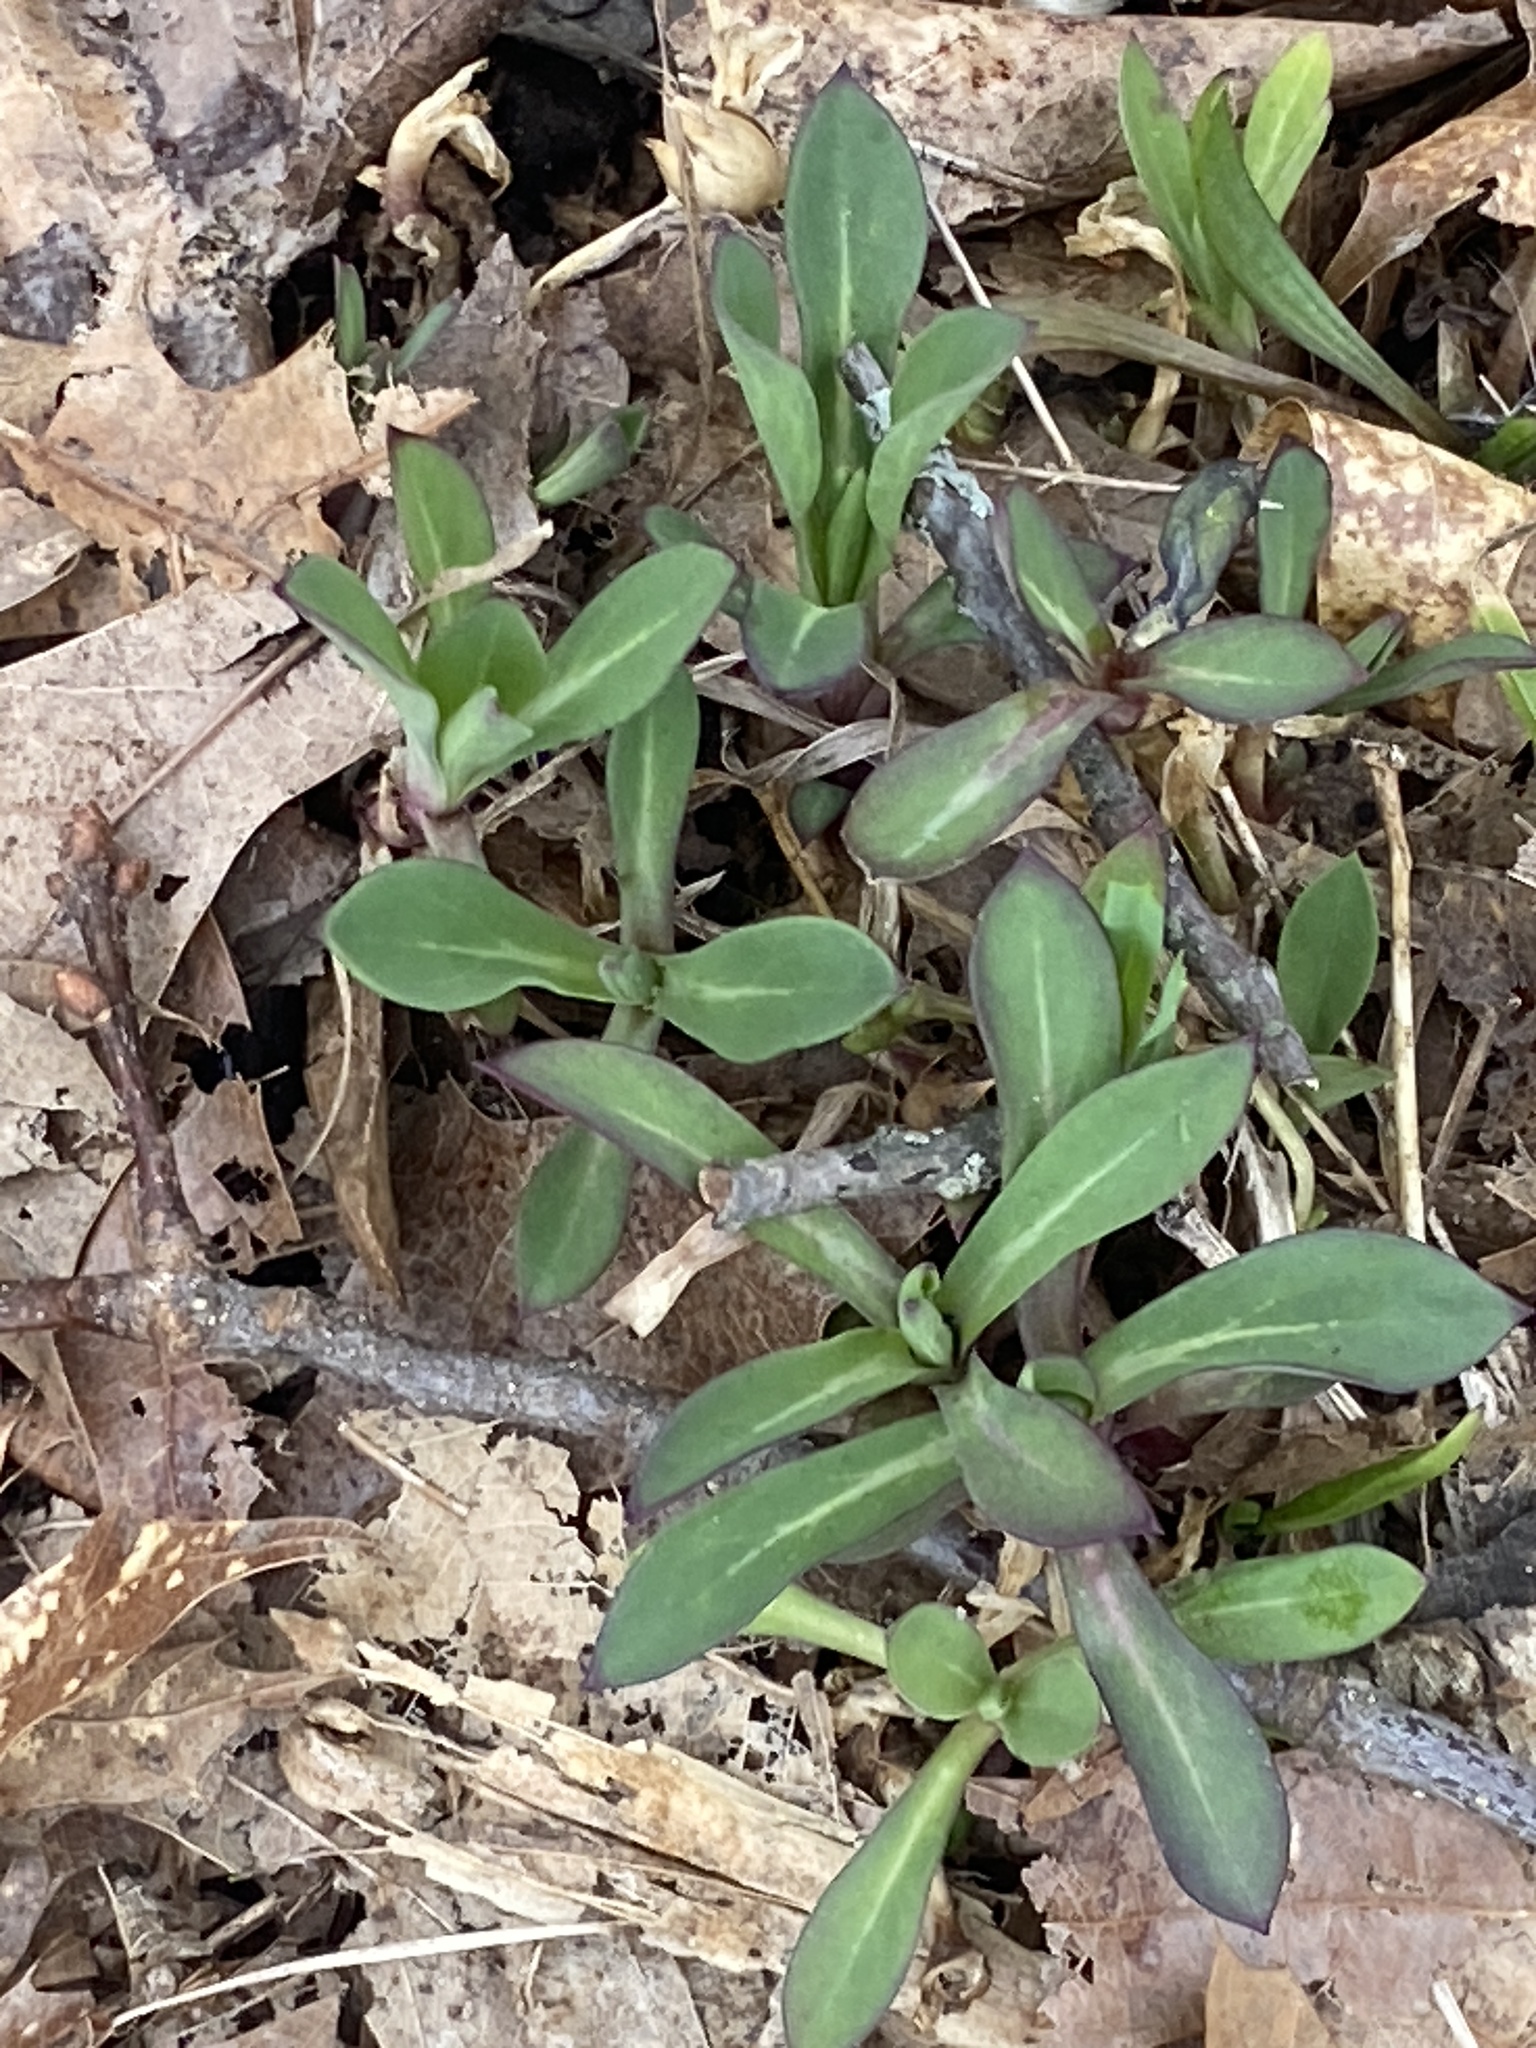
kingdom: Plantae
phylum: Tracheophyta
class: Magnoliopsida
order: Caryophyllales
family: Caryophyllaceae
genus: Silene
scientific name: Silene vulgaris
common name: Bladder campion
